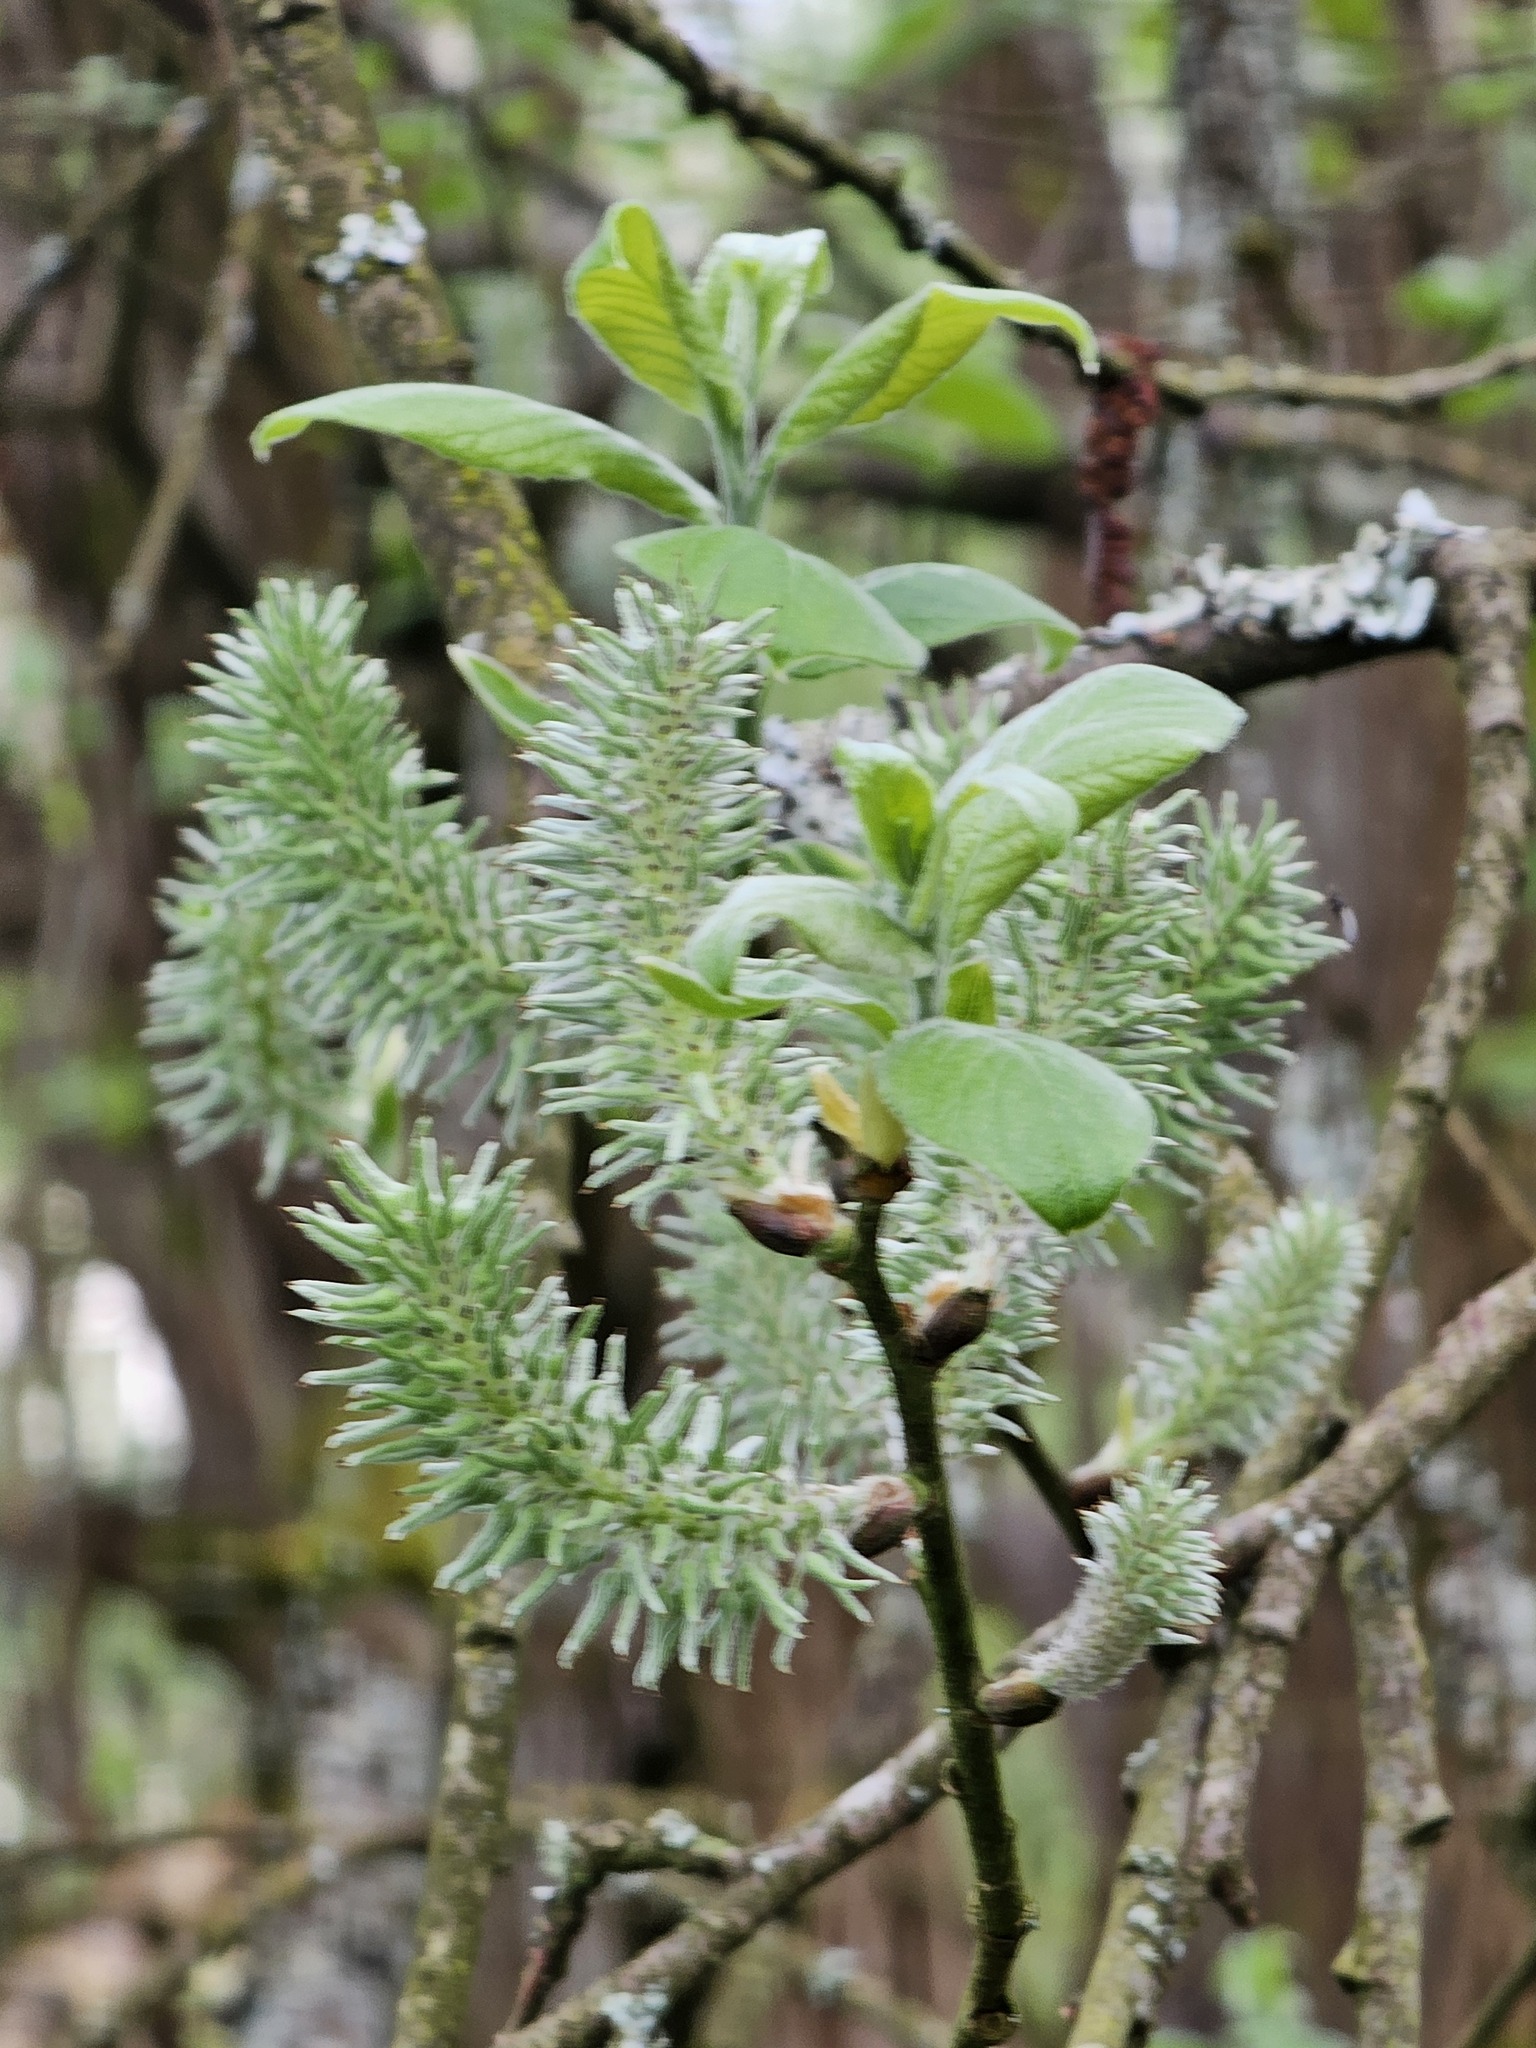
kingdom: Plantae
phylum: Tracheophyta
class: Magnoliopsida
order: Malpighiales
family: Salicaceae
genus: Salix
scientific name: Salix caprea
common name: Goat willow
